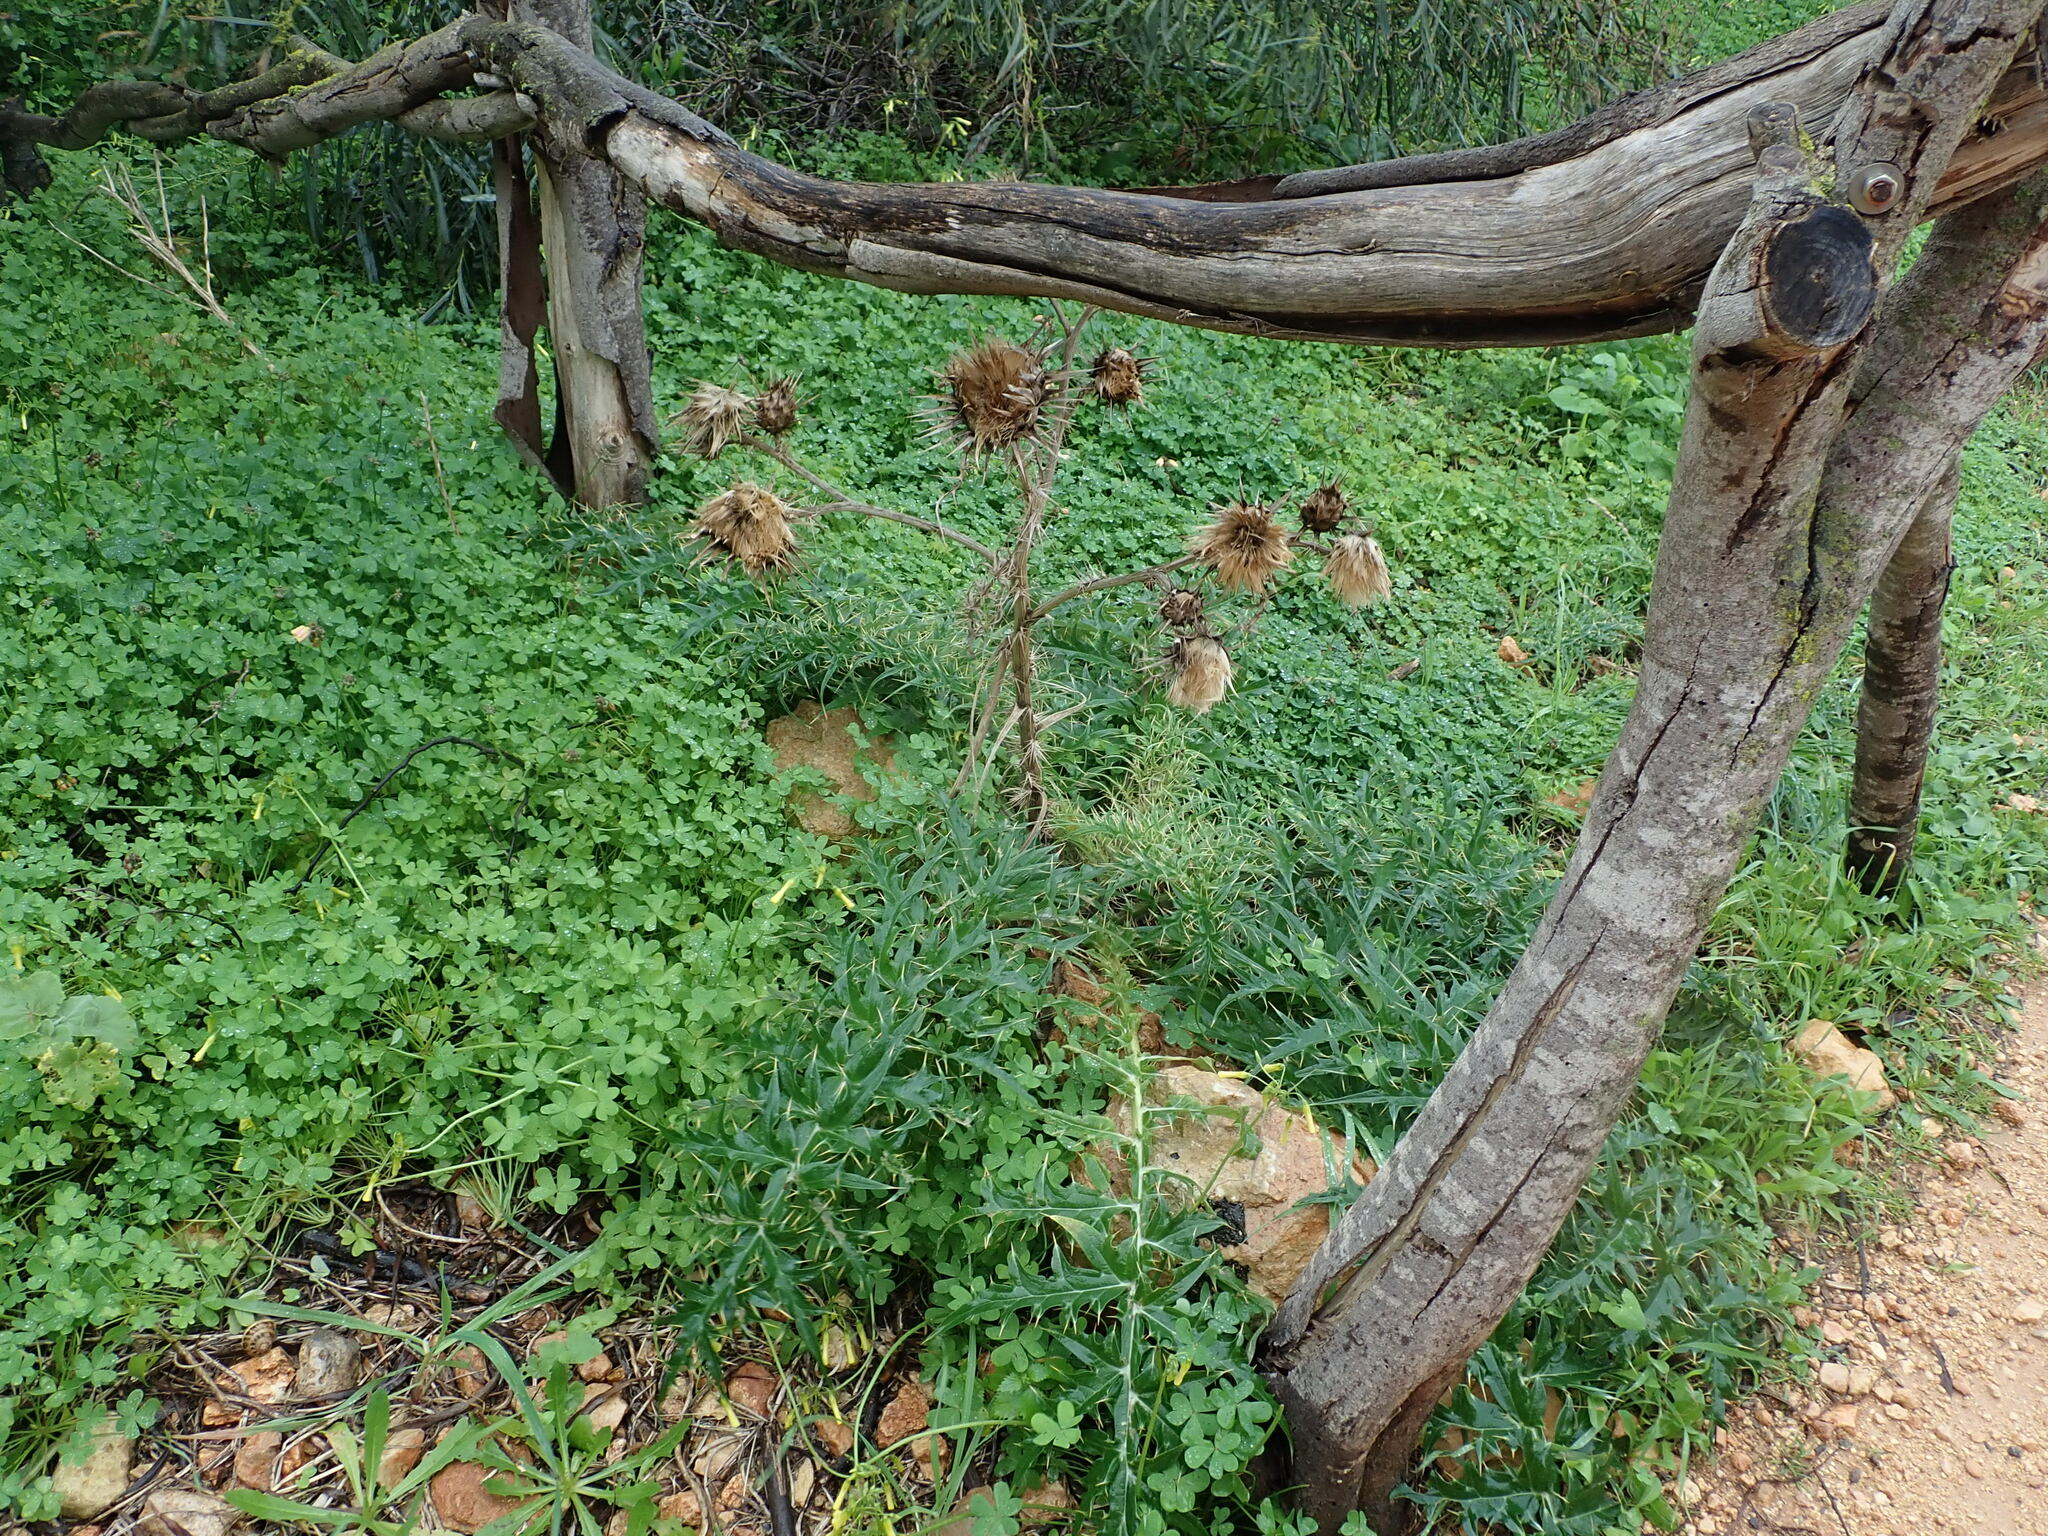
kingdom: Plantae
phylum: Tracheophyta
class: Magnoliopsida
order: Asterales
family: Asteraceae
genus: Cynara
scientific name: Cynara cardunculus
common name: Globe artichoke
